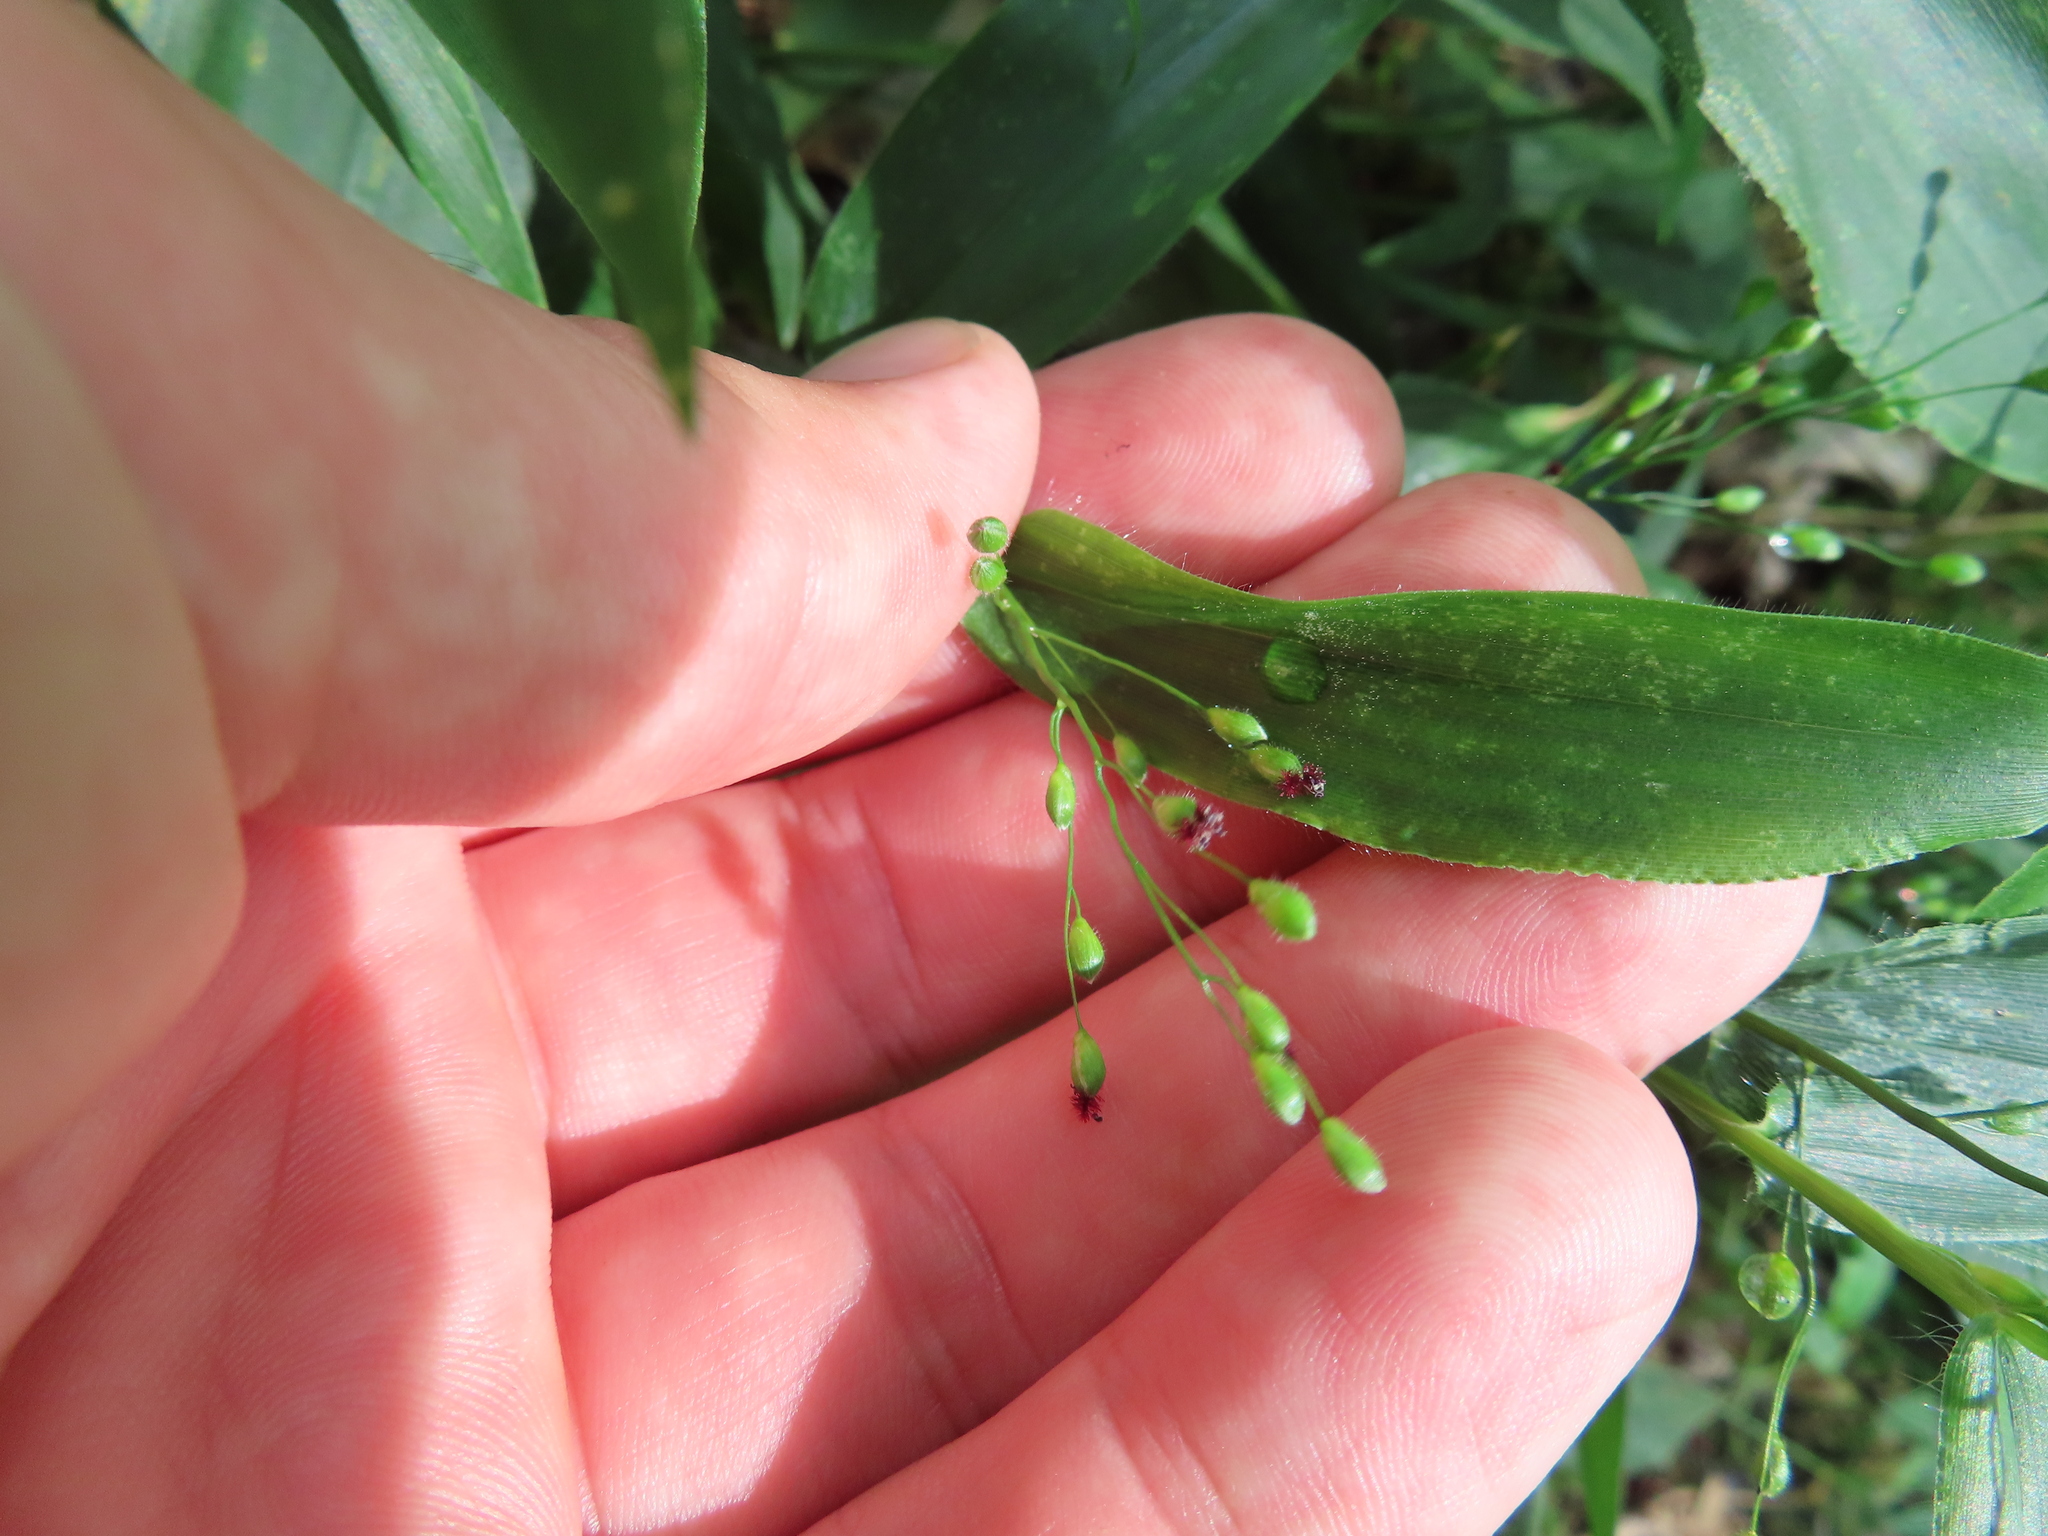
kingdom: Plantae
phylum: Tracheophyta
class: Liliopsida
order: Poales
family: Poaceae
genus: Dichanthelium
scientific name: Dichanthelium latifolium
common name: Broad-leaved panicgrass
